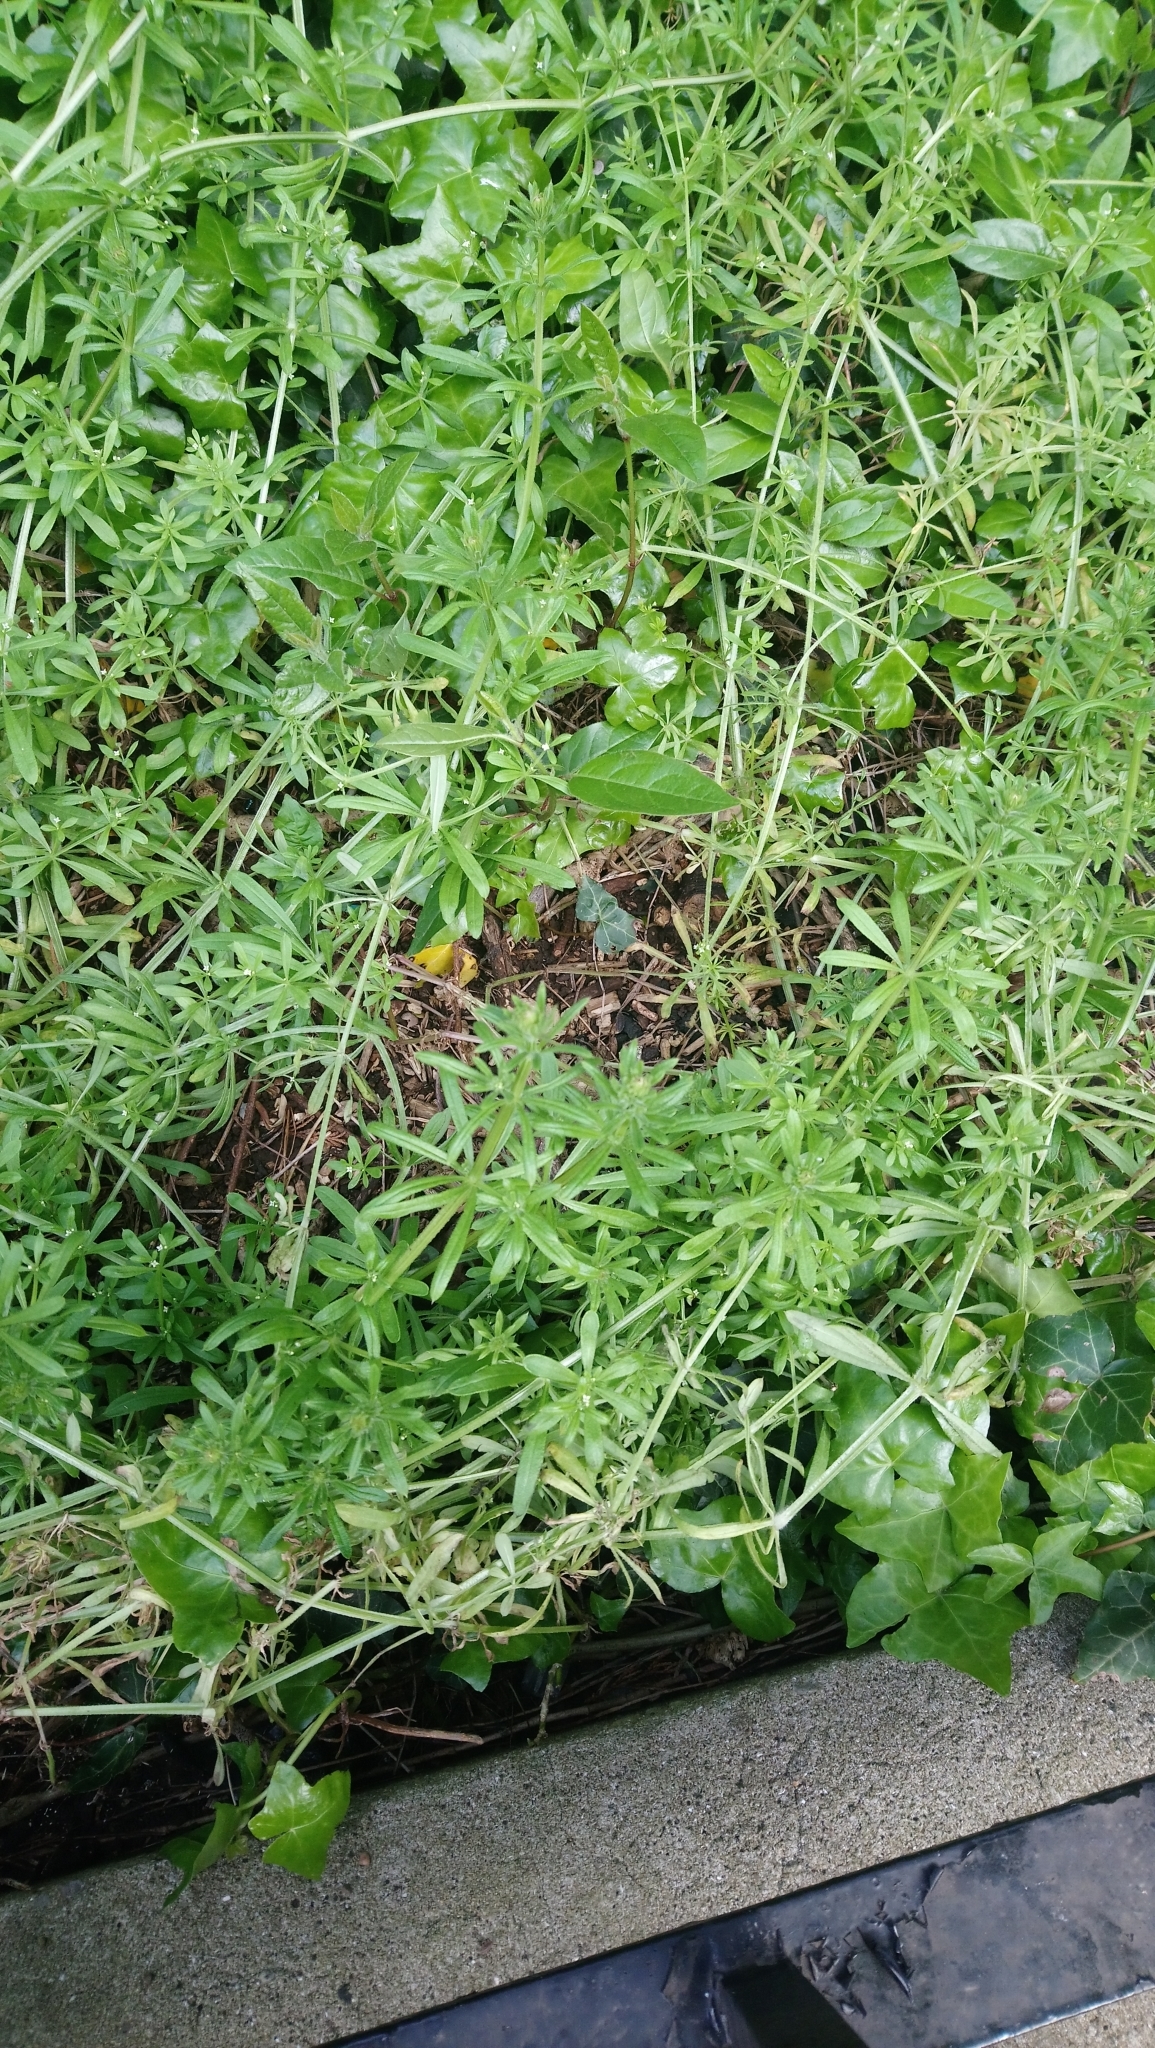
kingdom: Plantae
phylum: Tracheophyta
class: Magnoliopsida
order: Gentianales
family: Rubiaceae
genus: Galium
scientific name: Galium aparine
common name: Cleavers
